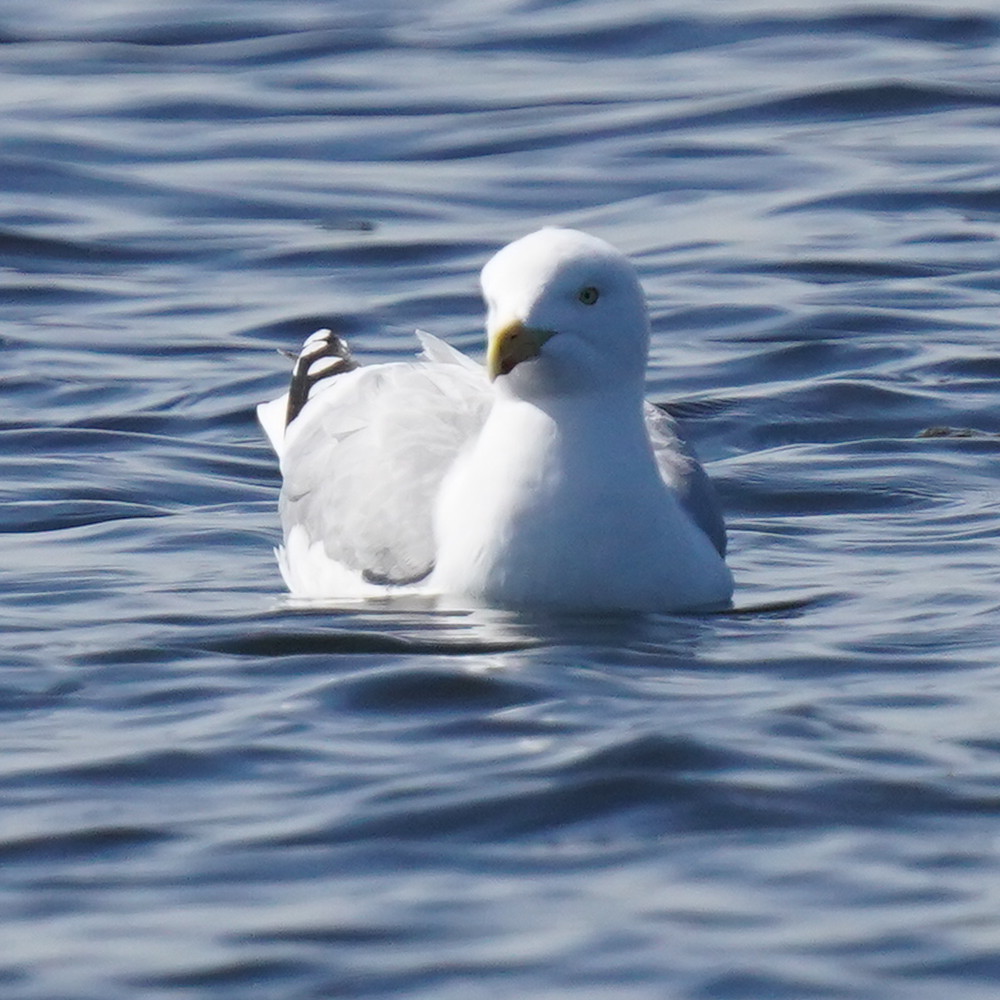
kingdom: Animalia
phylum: Chordata
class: Aves
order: Charadriiformes
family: Laridae
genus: Larus
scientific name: Larus argentatus
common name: Herring gull
